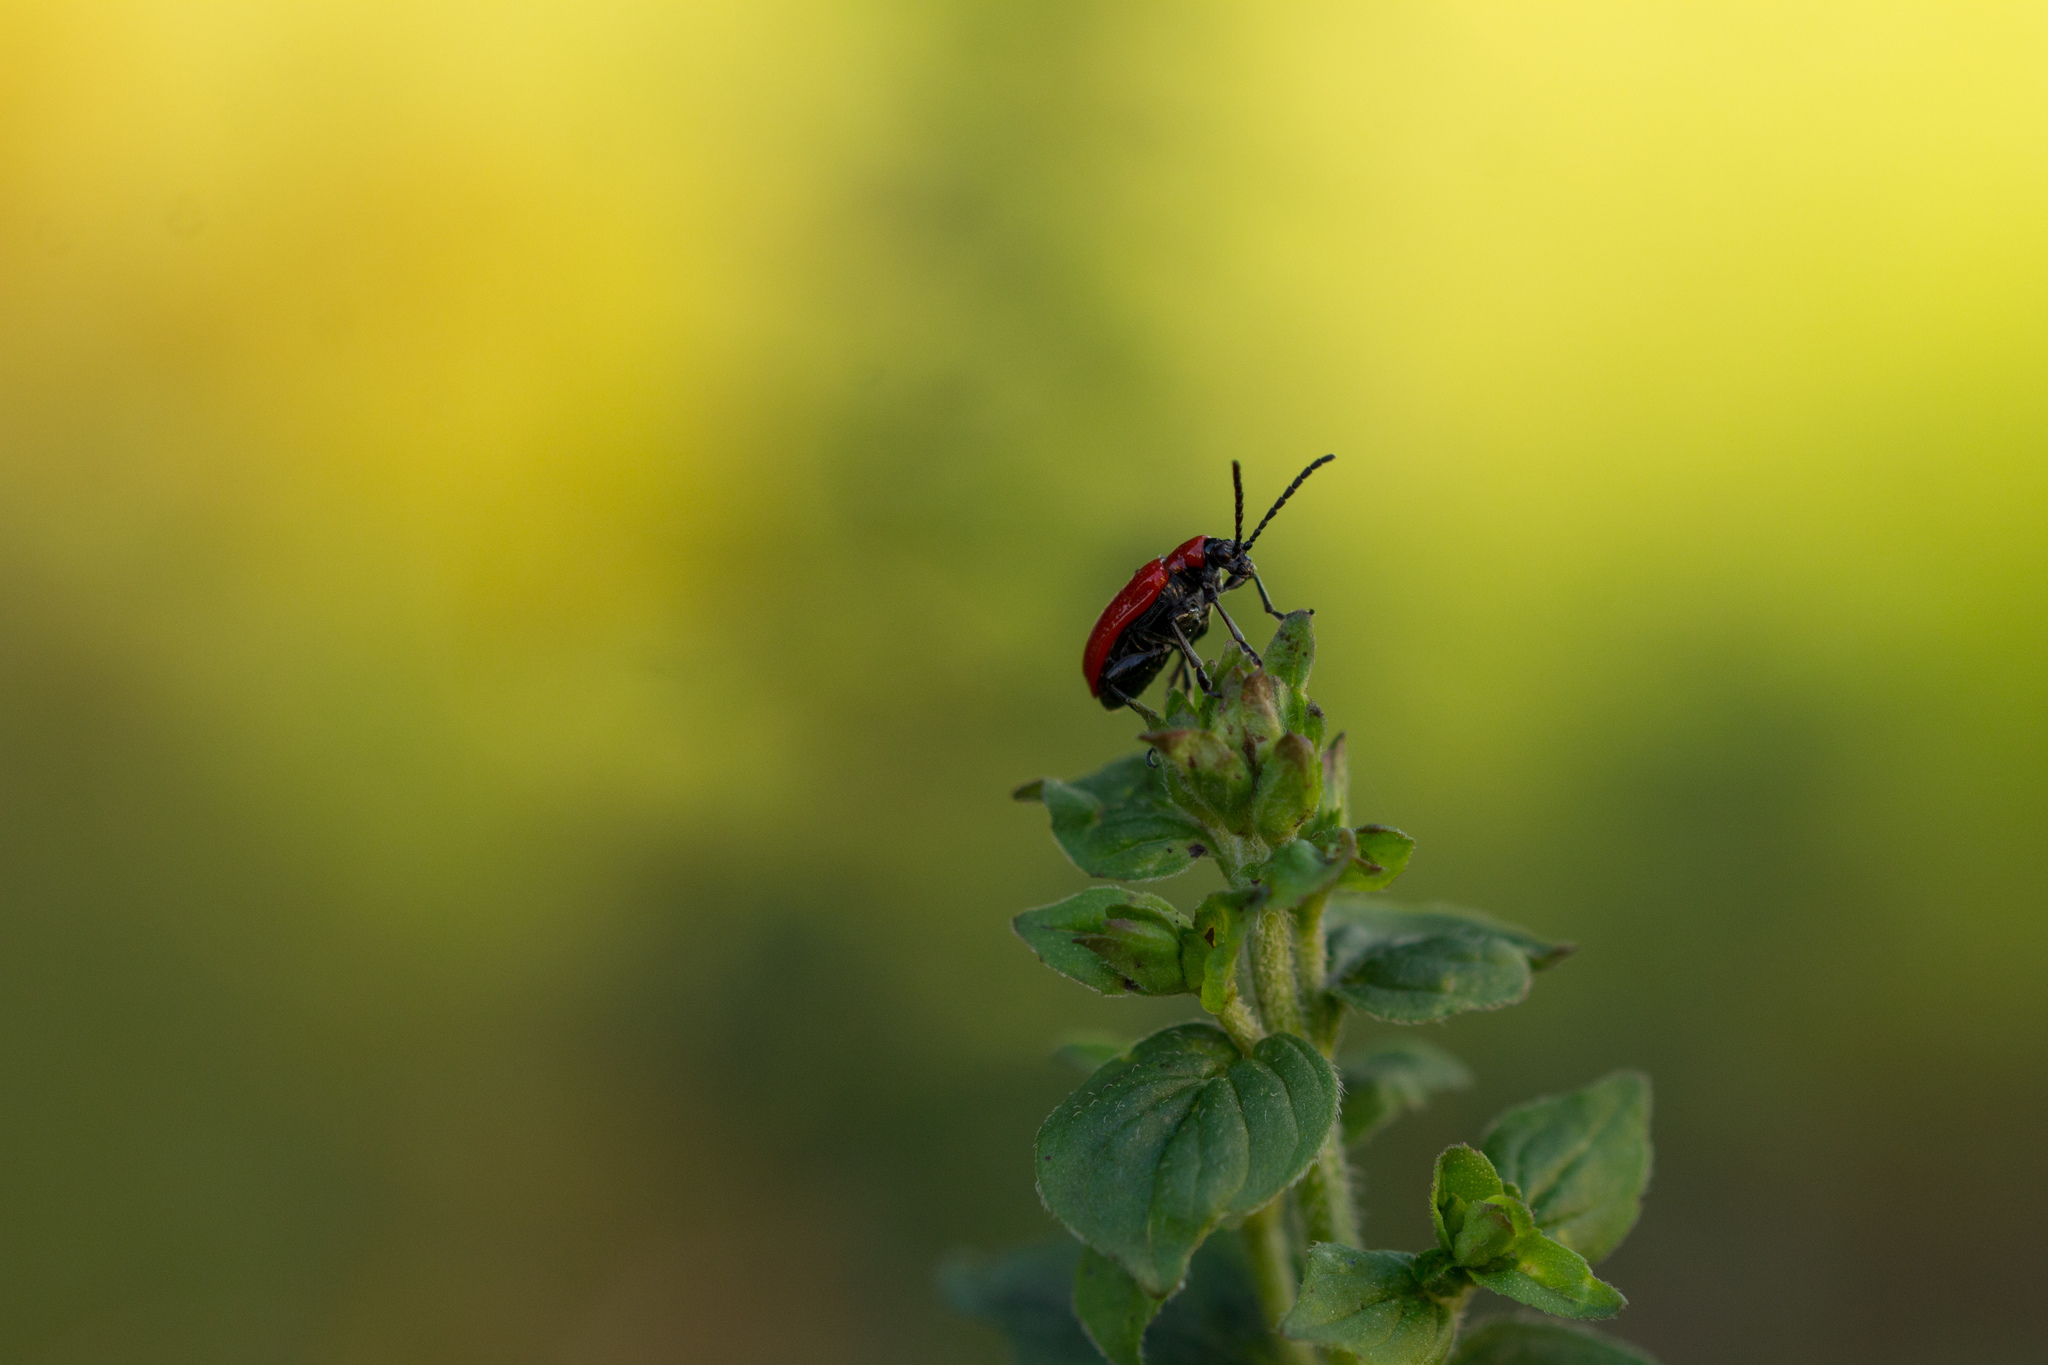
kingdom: Animalia
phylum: Arthropoda
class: Insecta
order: Coleoptera
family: Chrysomelidae
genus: Lilioceris
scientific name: Lilioceris lilii
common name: Lily beetle
